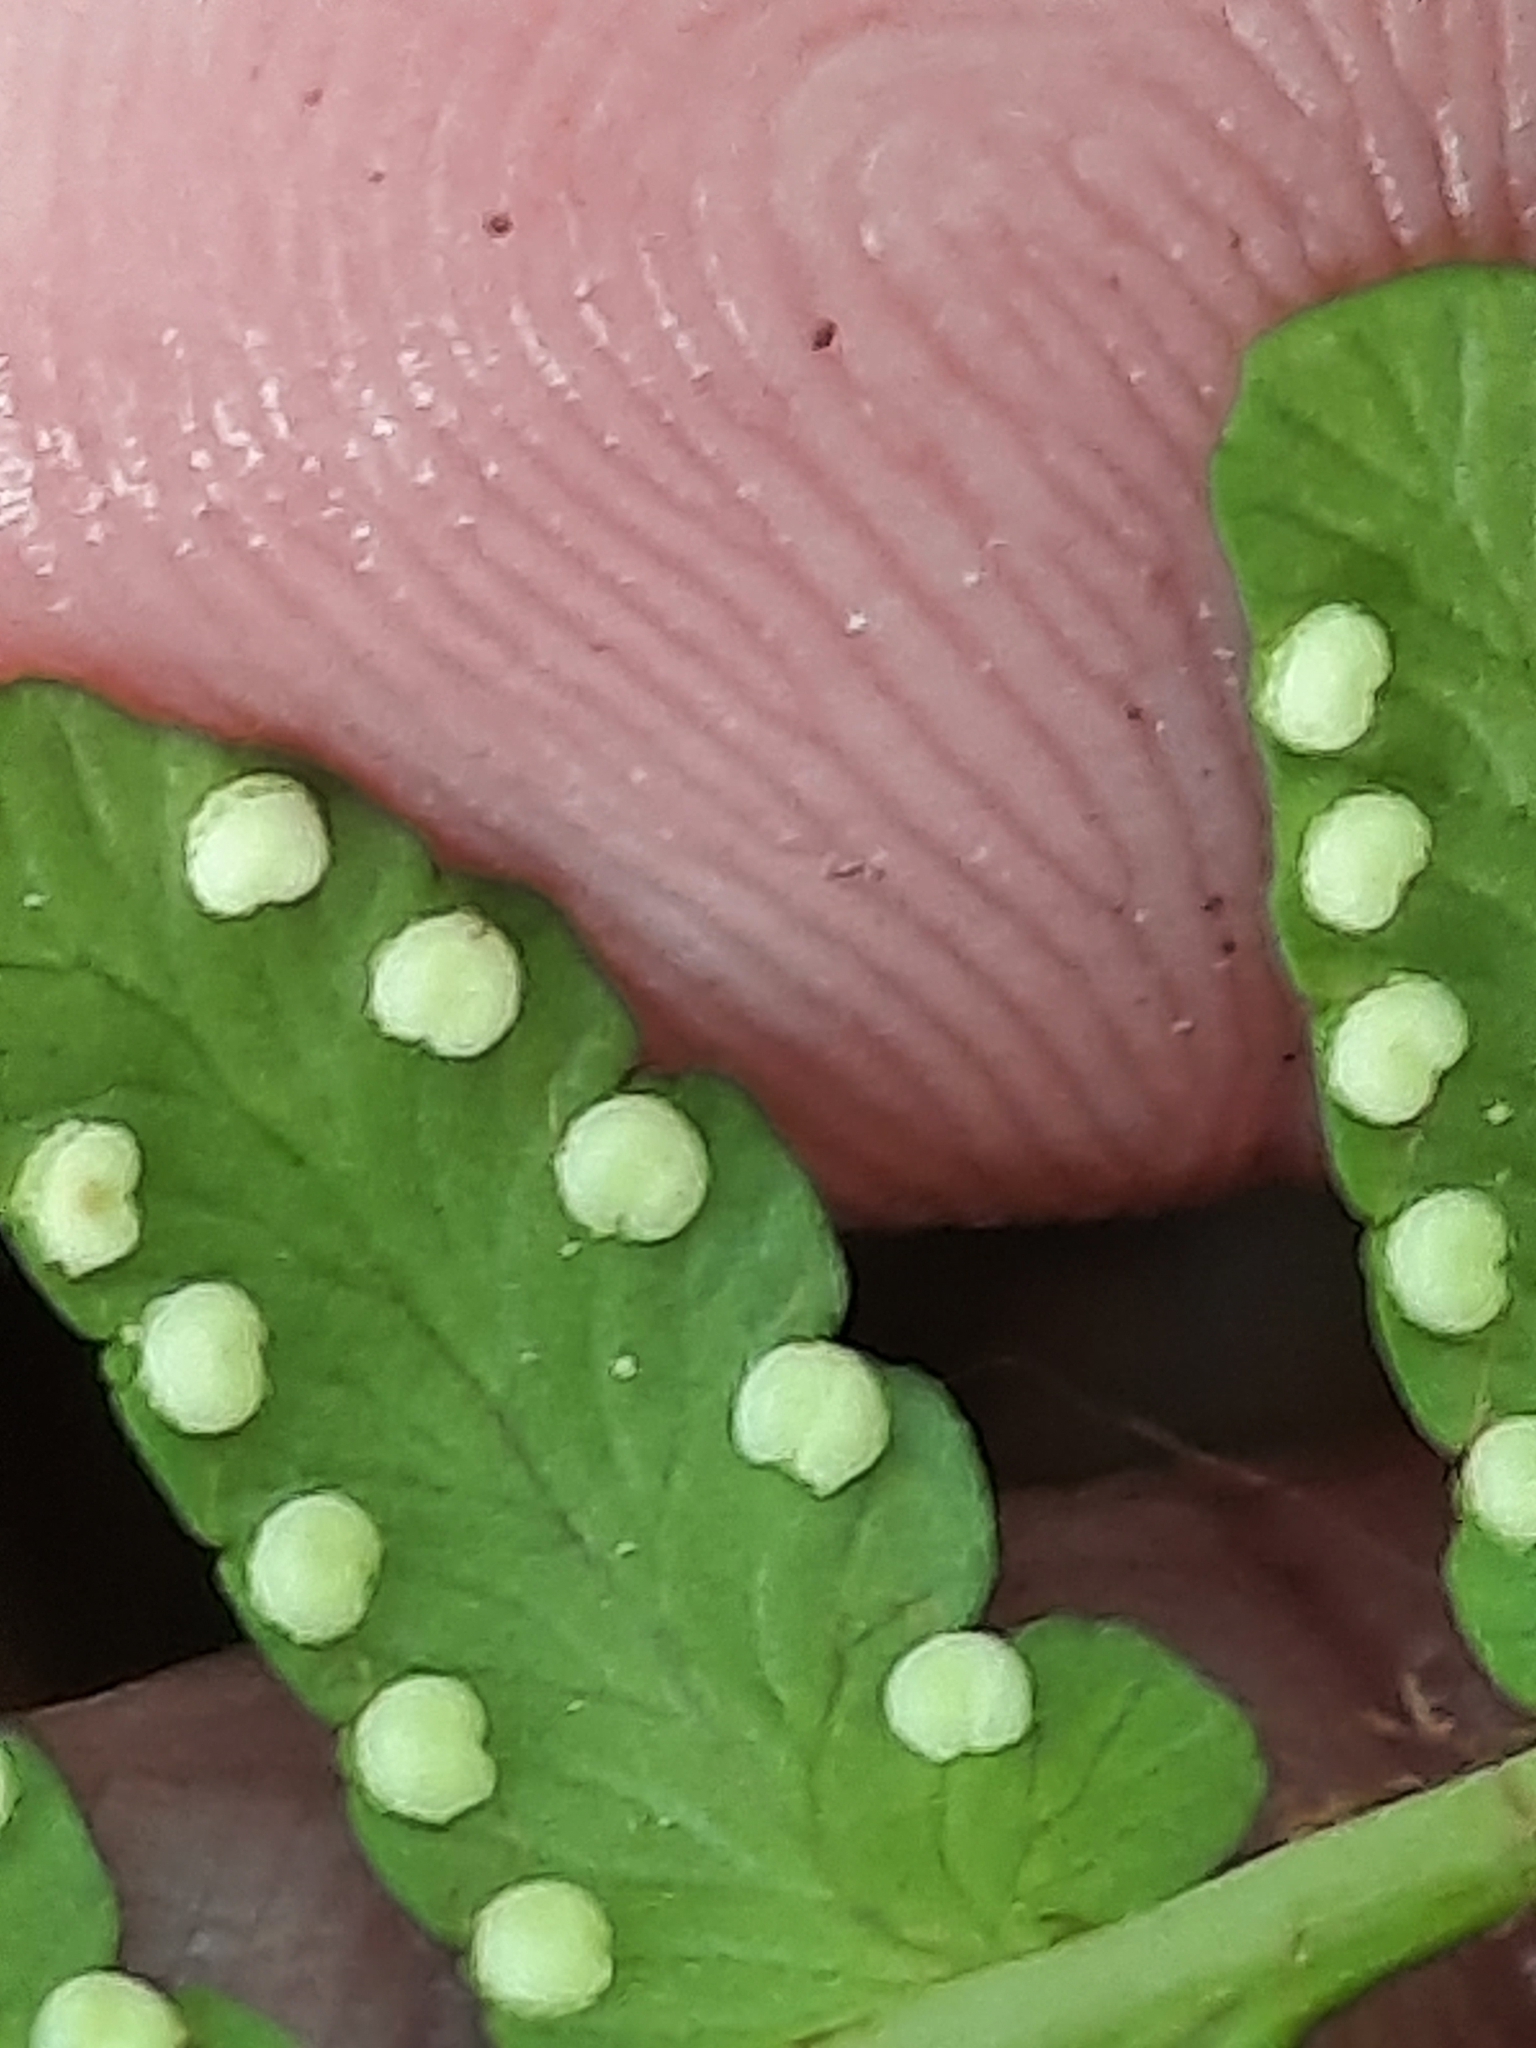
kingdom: Plantae
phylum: Tracheophyta
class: Polypodiopsida
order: Polypodiales
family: Dryopteridaceae
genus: Dryopteris
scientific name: Dryopteris marginalis
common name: Marginal wood fern
